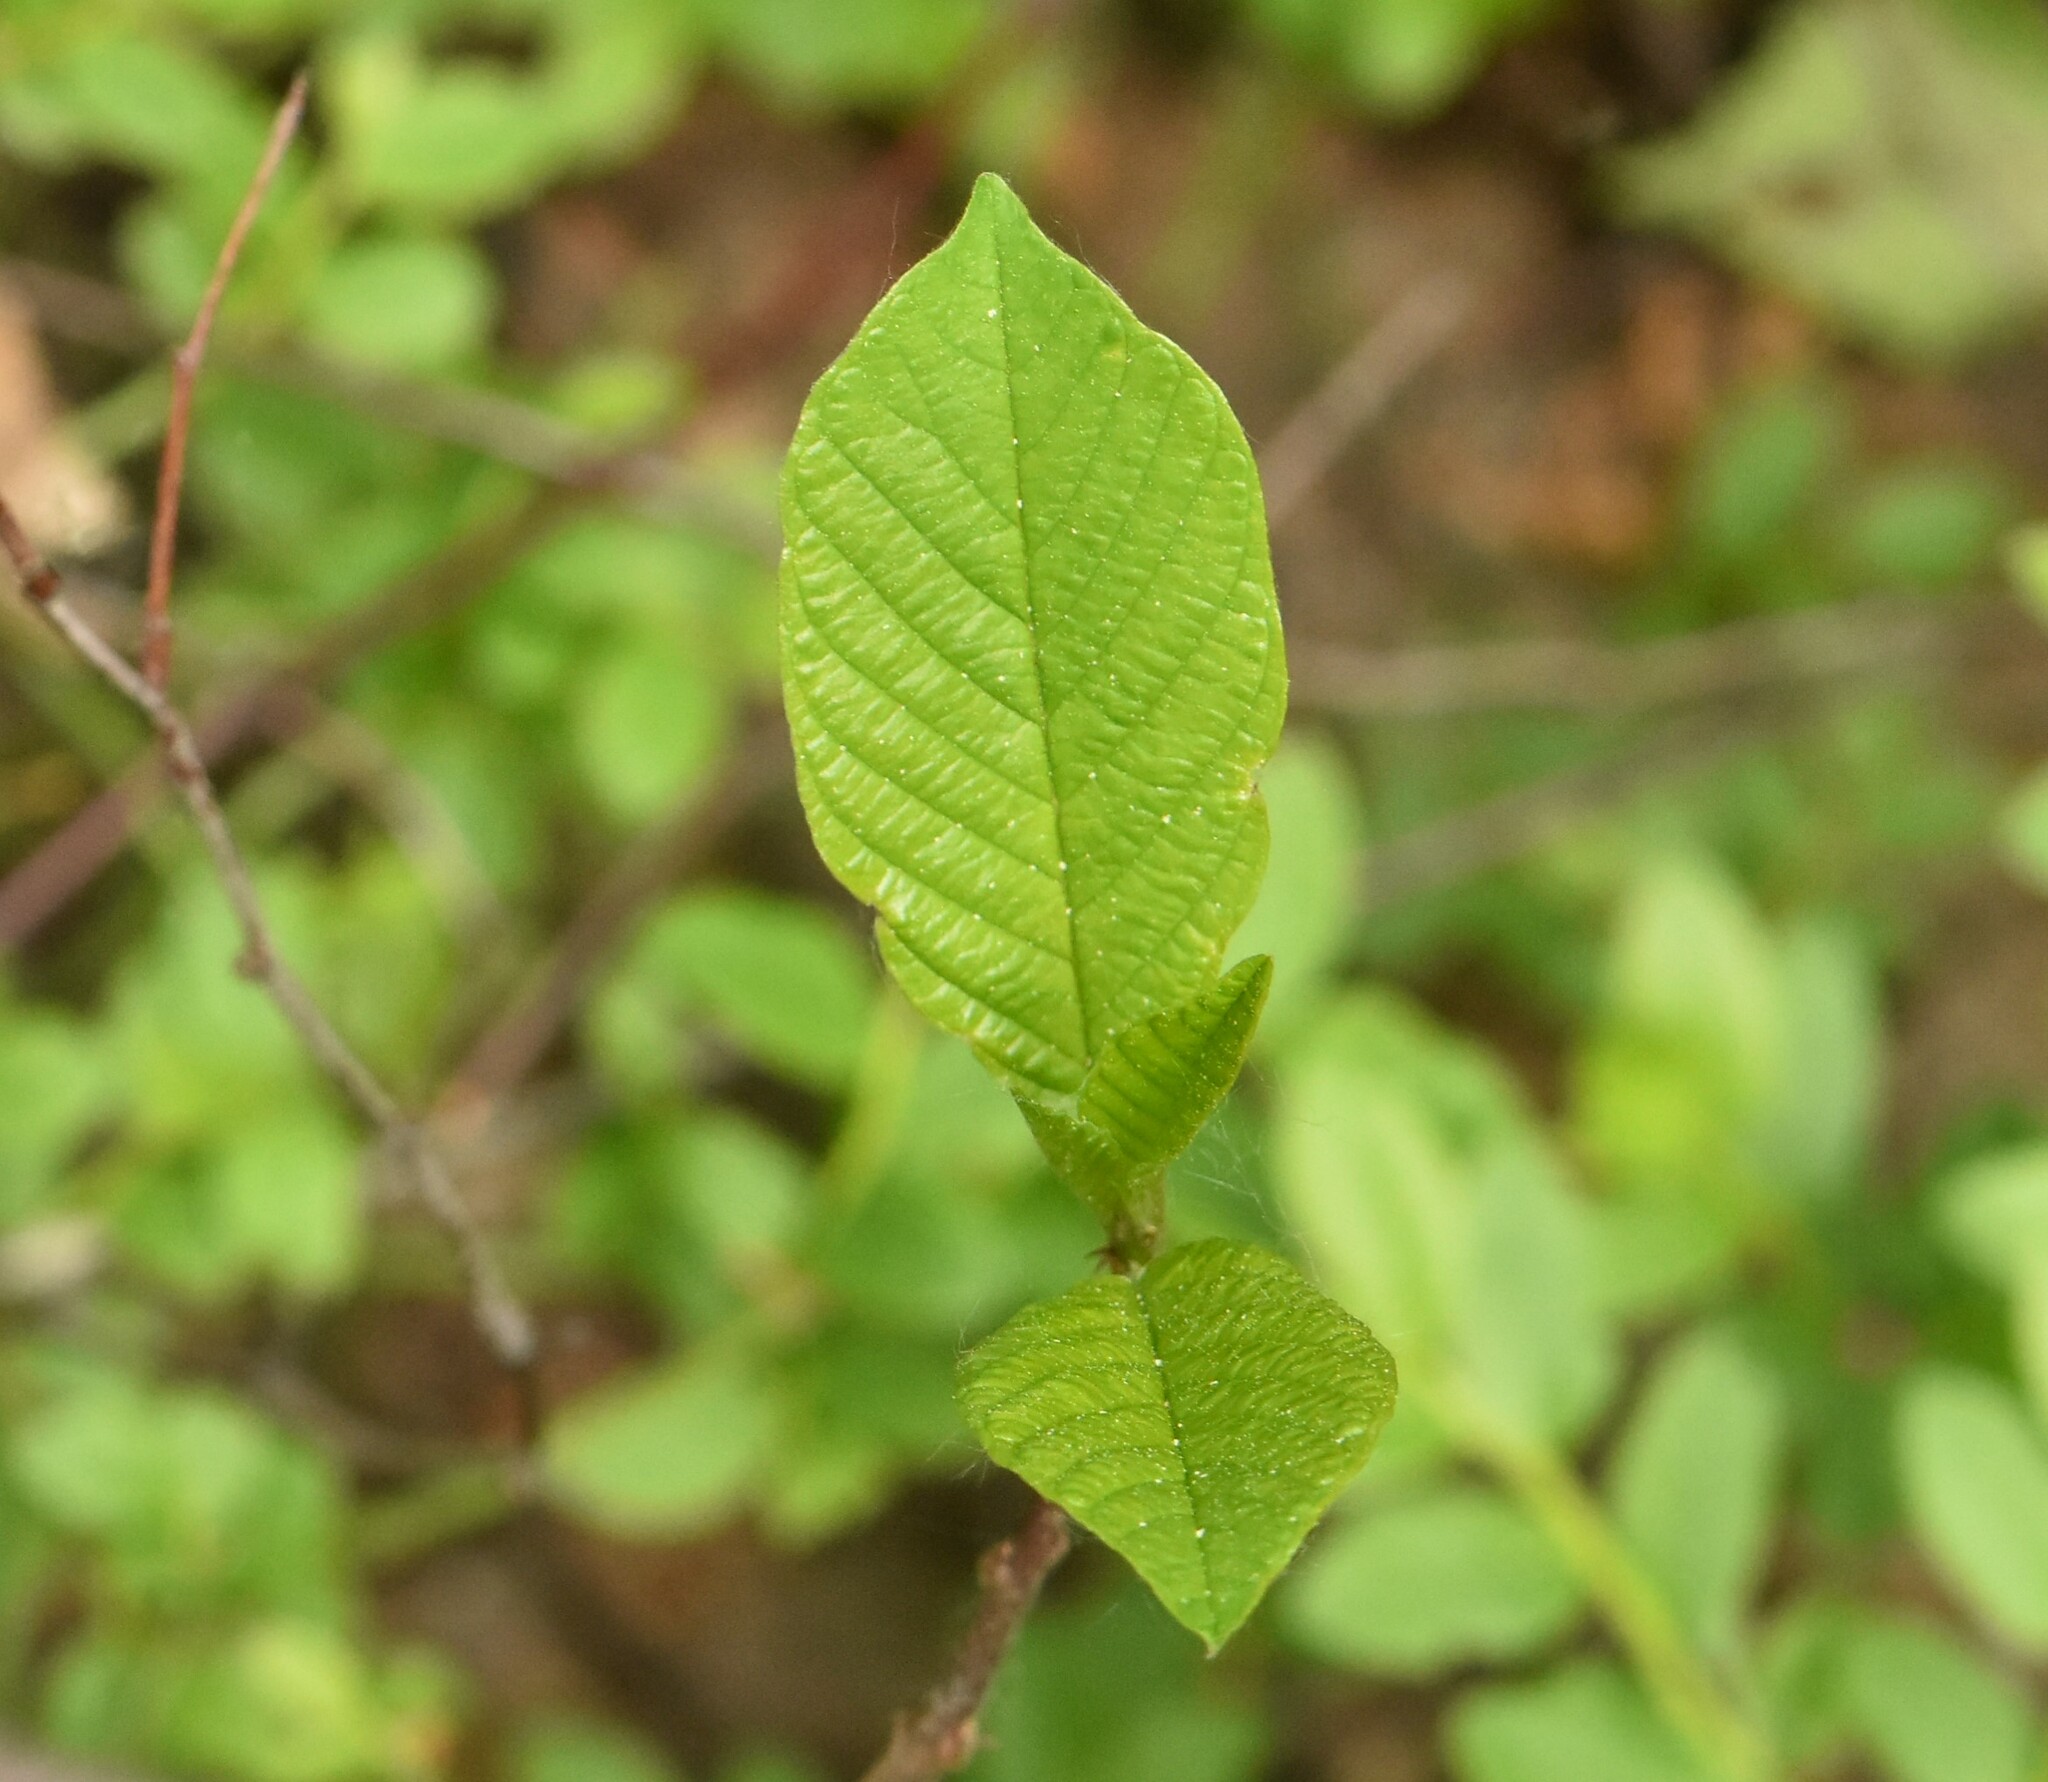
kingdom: Plantae
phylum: Tracheophyta
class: Magnoliopsida
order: Rosales
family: Rhamnaceae
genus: Frangula
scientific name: Frangula alnus
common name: Alder buckthorn
